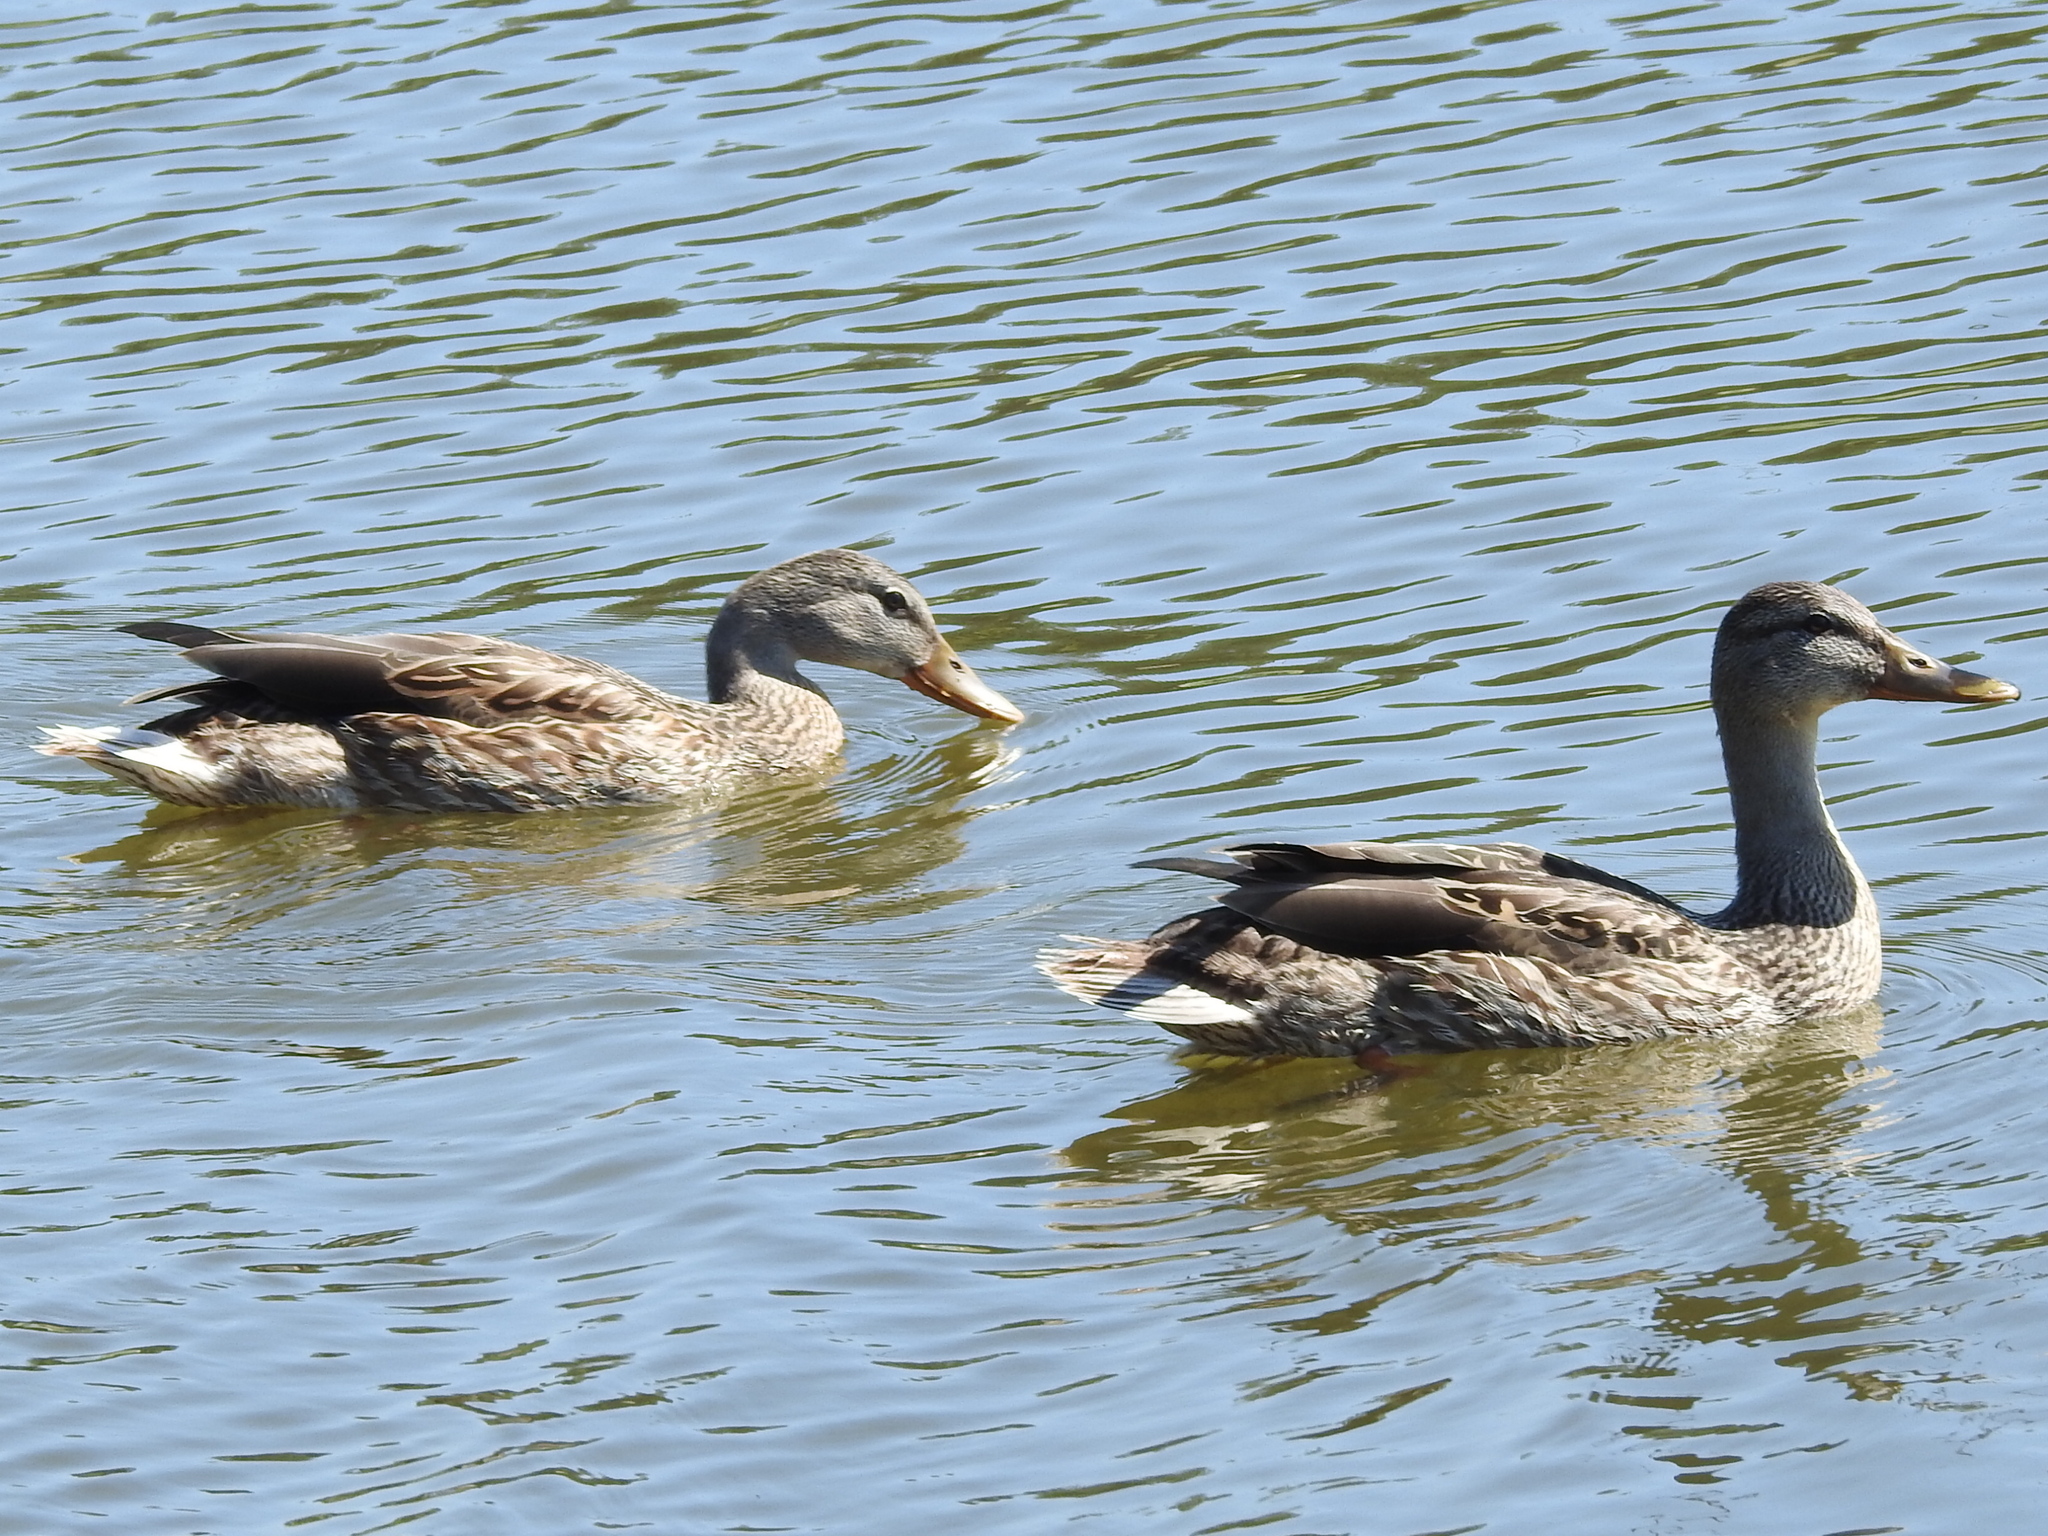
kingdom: Animalia
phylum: Chordata
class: Aves
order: Anseriformes
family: Anatidae
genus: Anas
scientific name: Anas platyrhynchos
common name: Mallard
